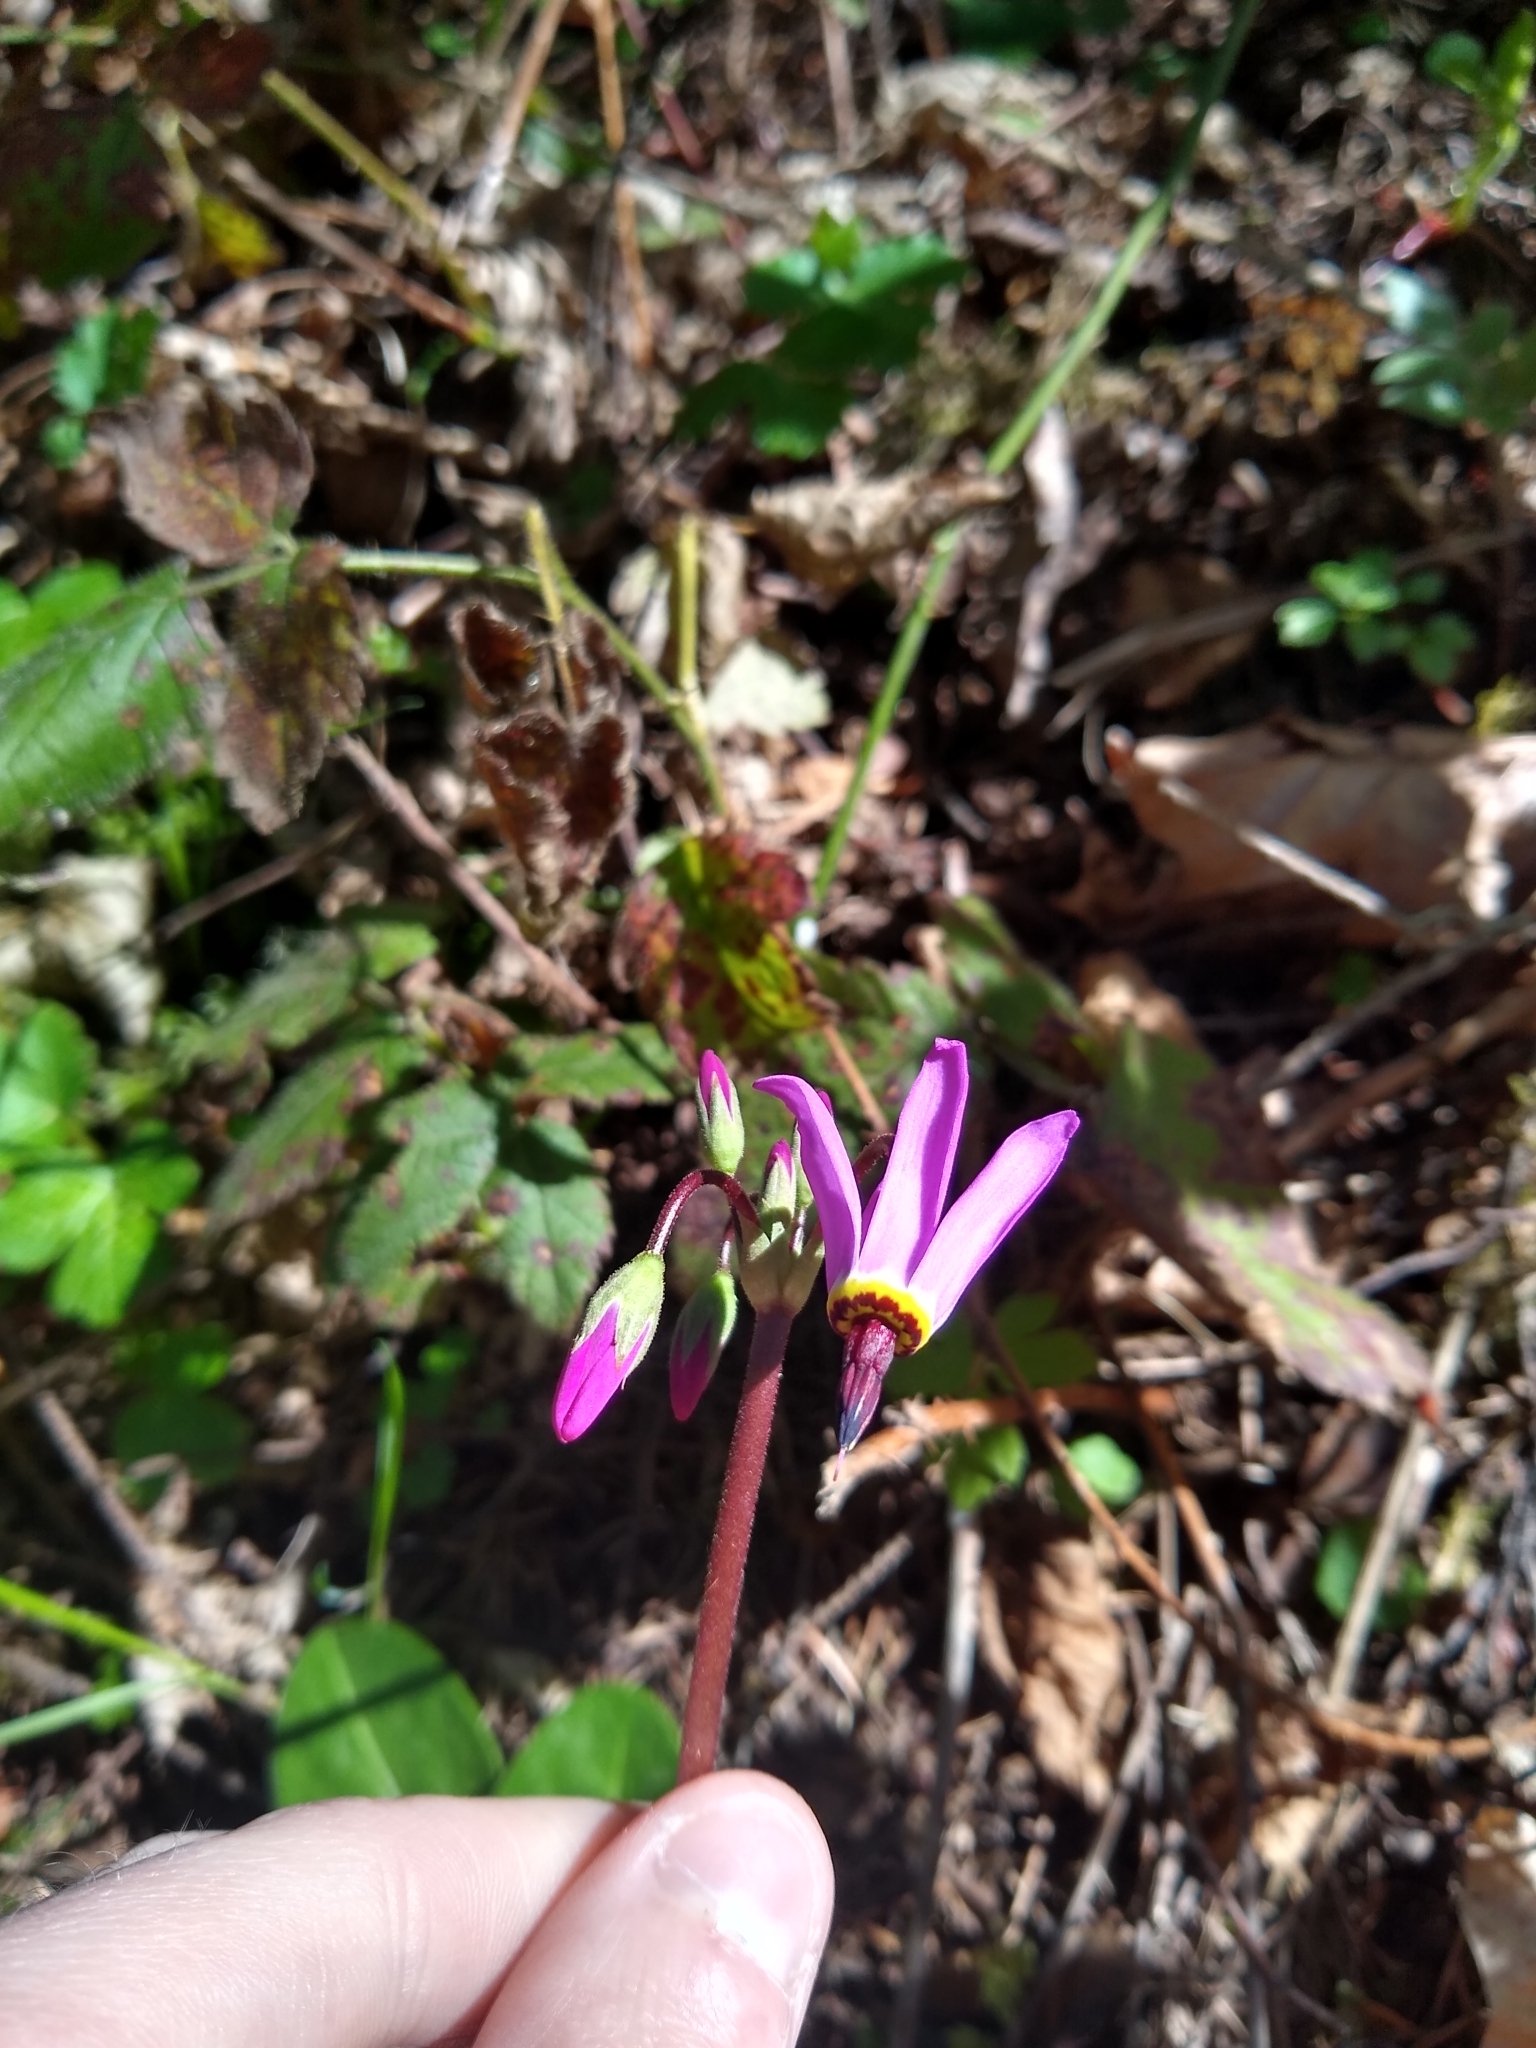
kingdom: Plantae
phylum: Tracheophyta
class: Magnoliopsida
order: Ericales
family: Primulaceae
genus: Dodecatheon
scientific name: Dodecatheon hendersonii
